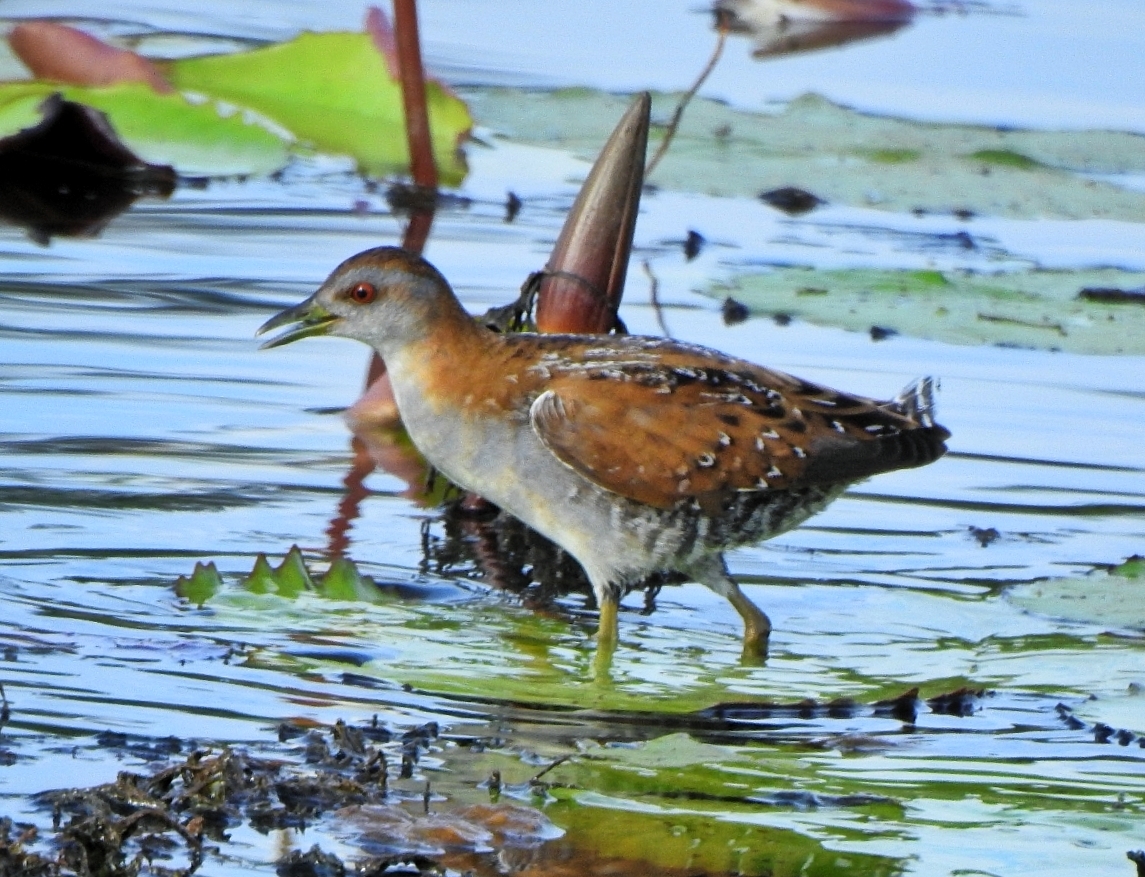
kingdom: Animalia
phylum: Chordata
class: Aves
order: Gruiformes
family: Rallidae
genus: Porzana
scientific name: Porzana pusilla
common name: Baillon's crake
